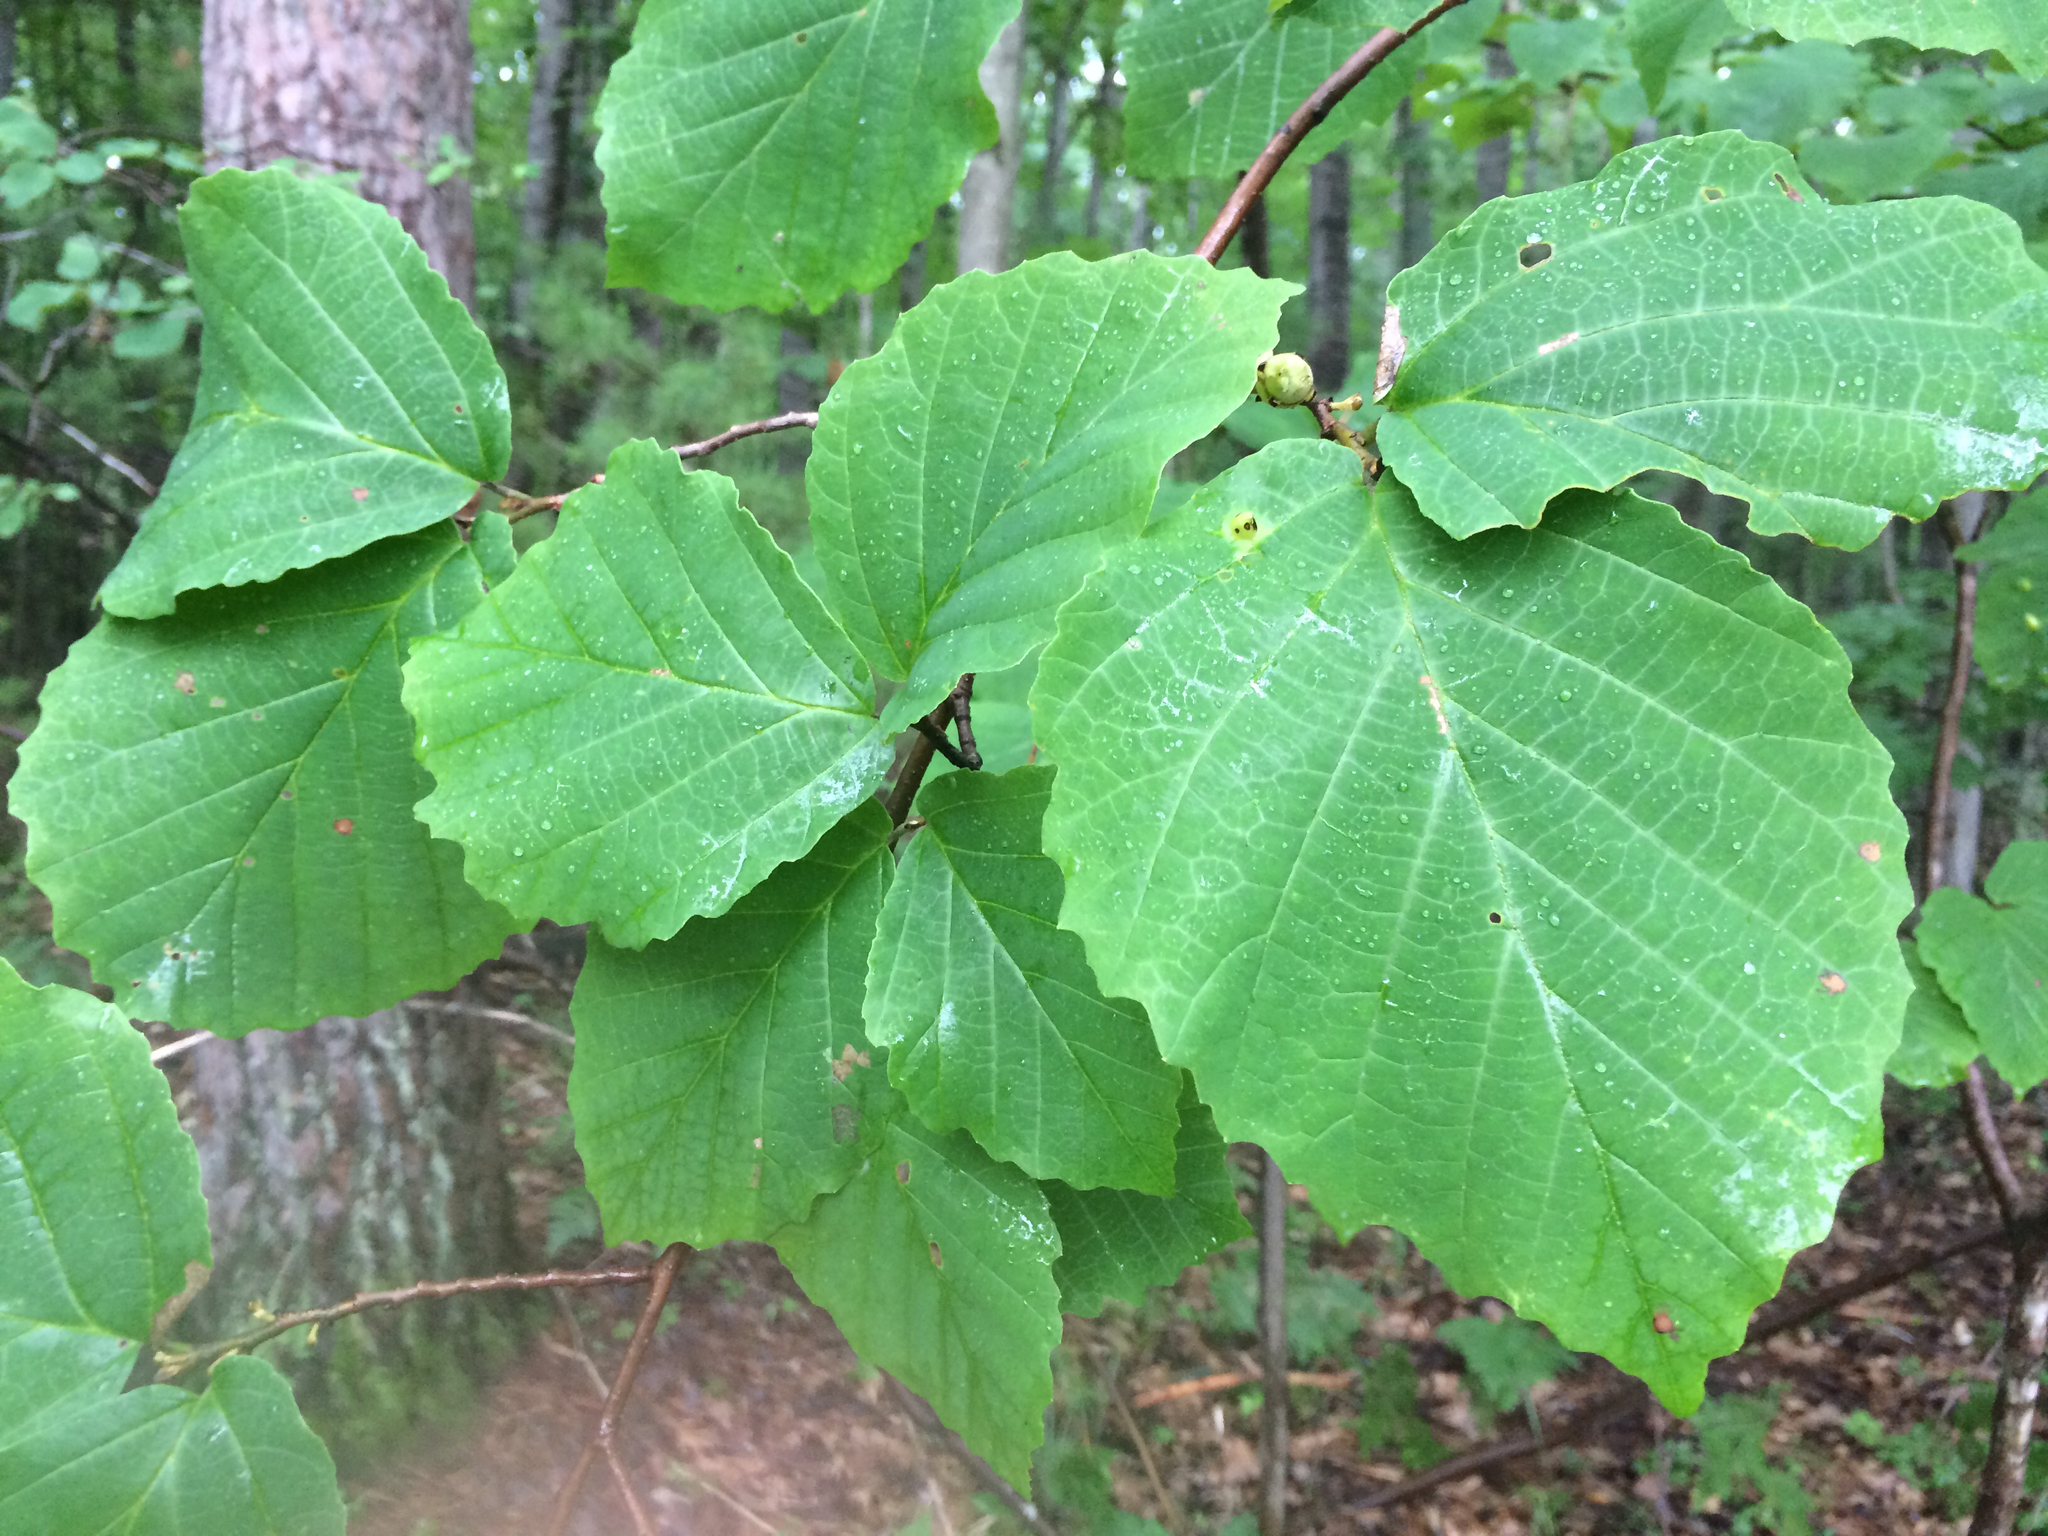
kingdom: Plantae
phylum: Tracheophyta
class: Magnoliopsida
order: Saxifragales
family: Hamamelidaceae
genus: Hamamelis
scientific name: Hamamelis virginiana
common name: Witch-hazel
